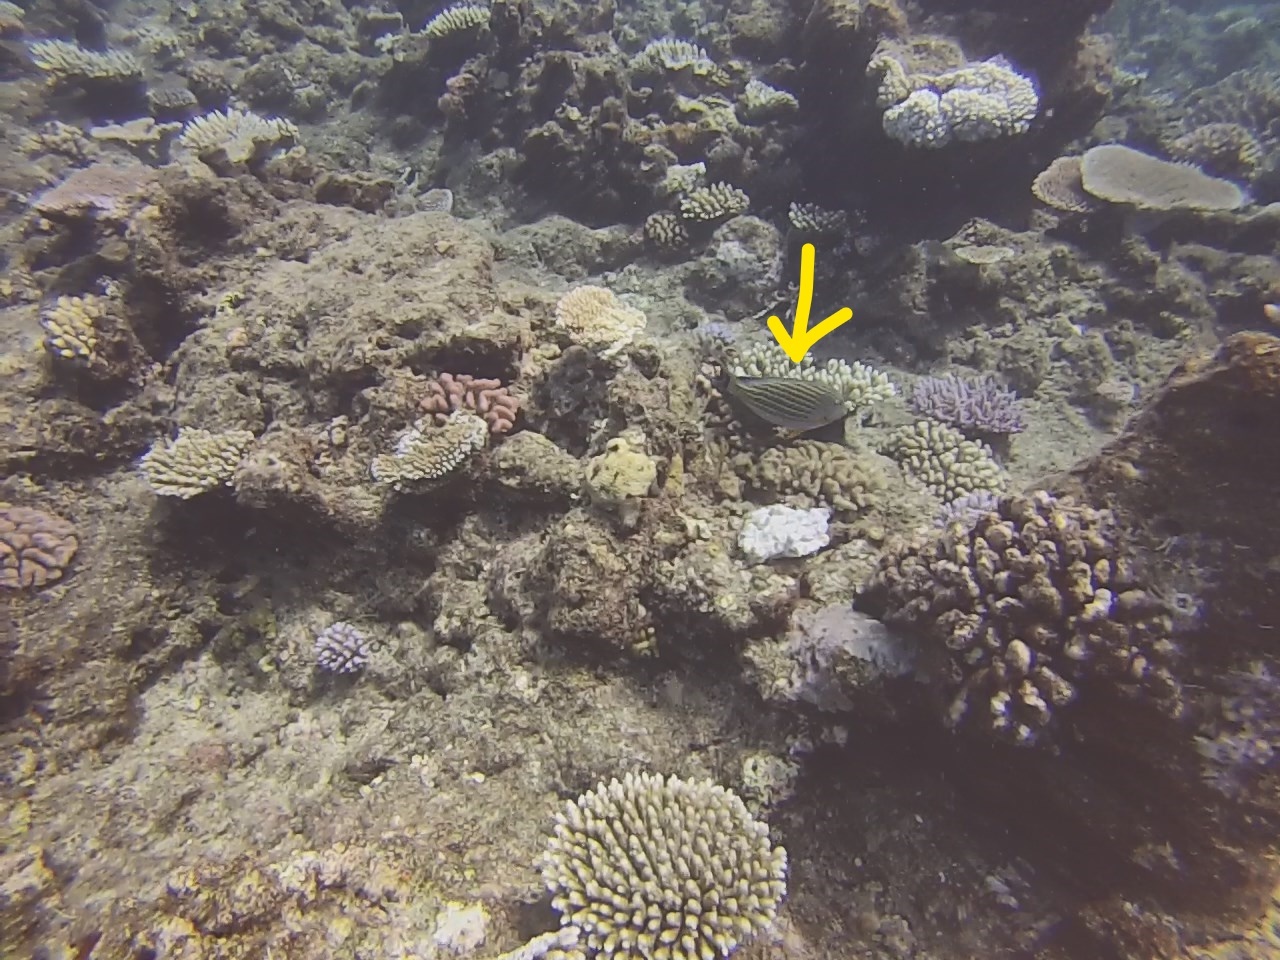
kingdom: Animalia
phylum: Chordata
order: Perciformes
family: Acanthuridae
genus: Acanthurus
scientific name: Acanthurus lineatus
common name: Striped surgeonfish
